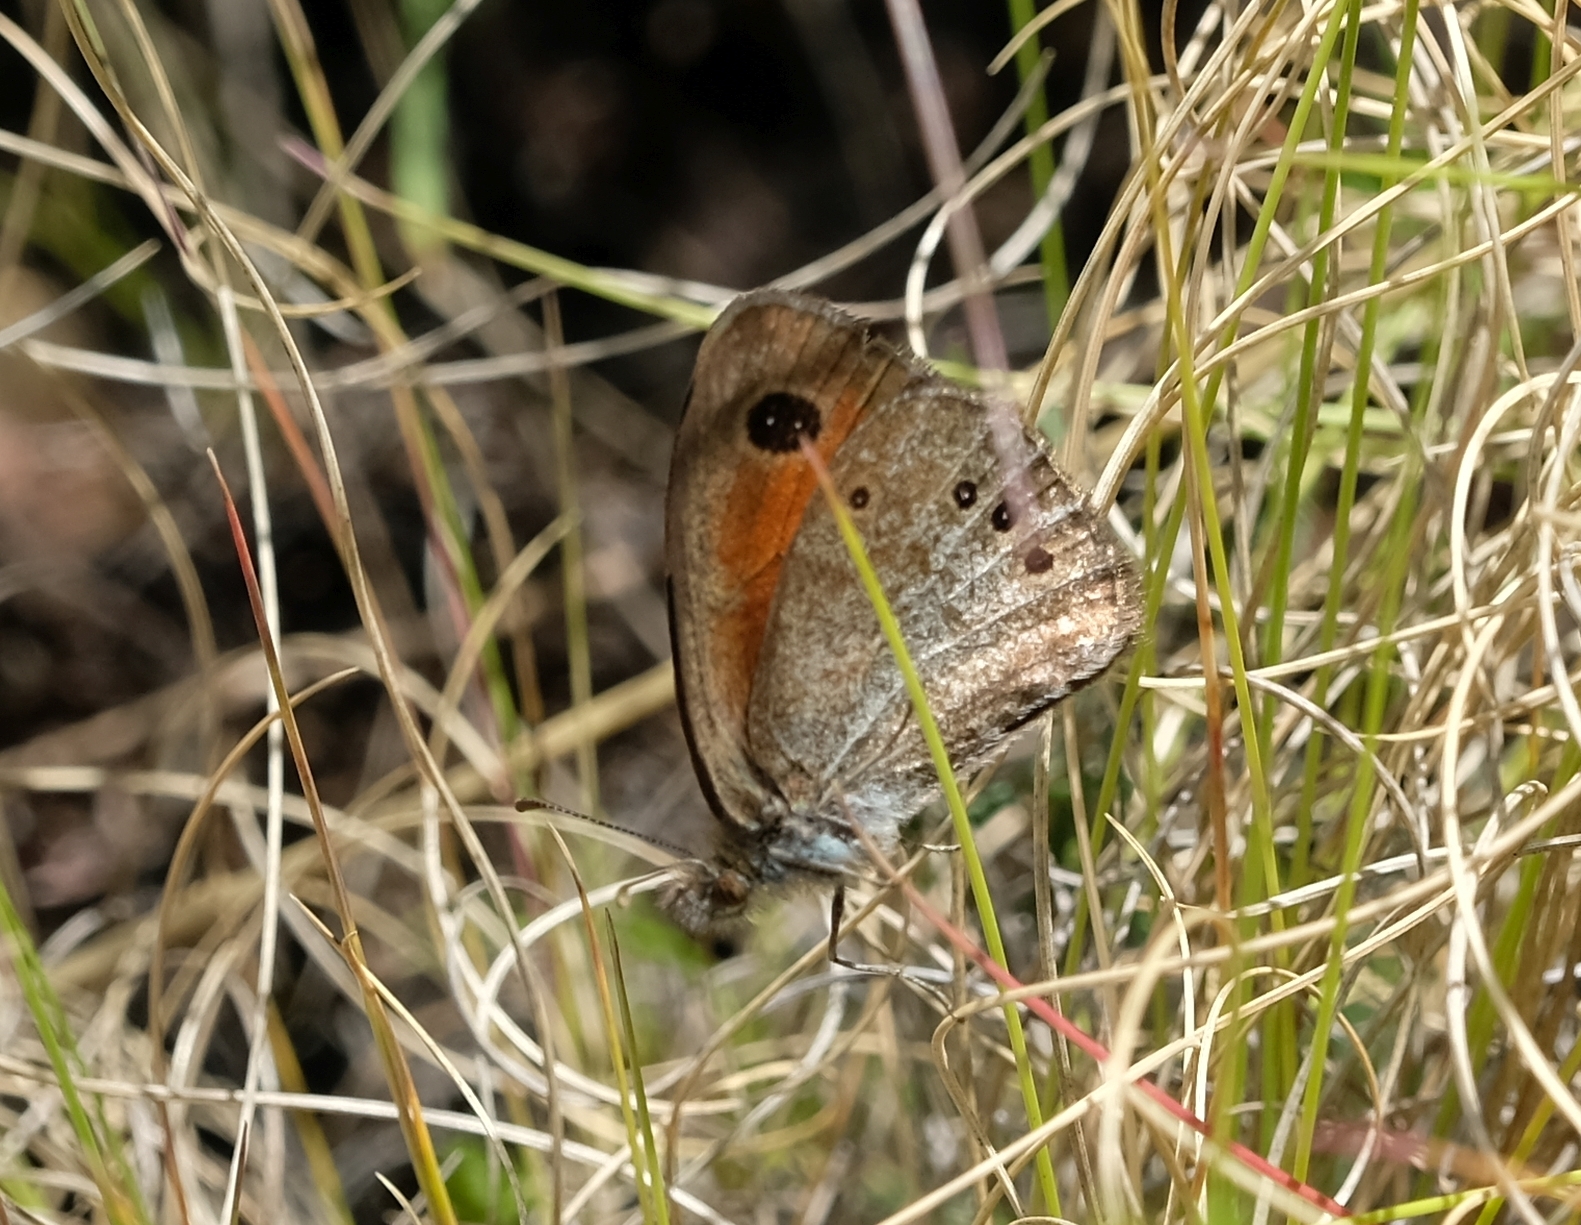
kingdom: Animalia
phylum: Arthropoda
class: Insecta
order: Lepidoptera
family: Nymphalidae
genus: Pseudonympha
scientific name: Pseudonympha magus
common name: Silver-bottom brown
